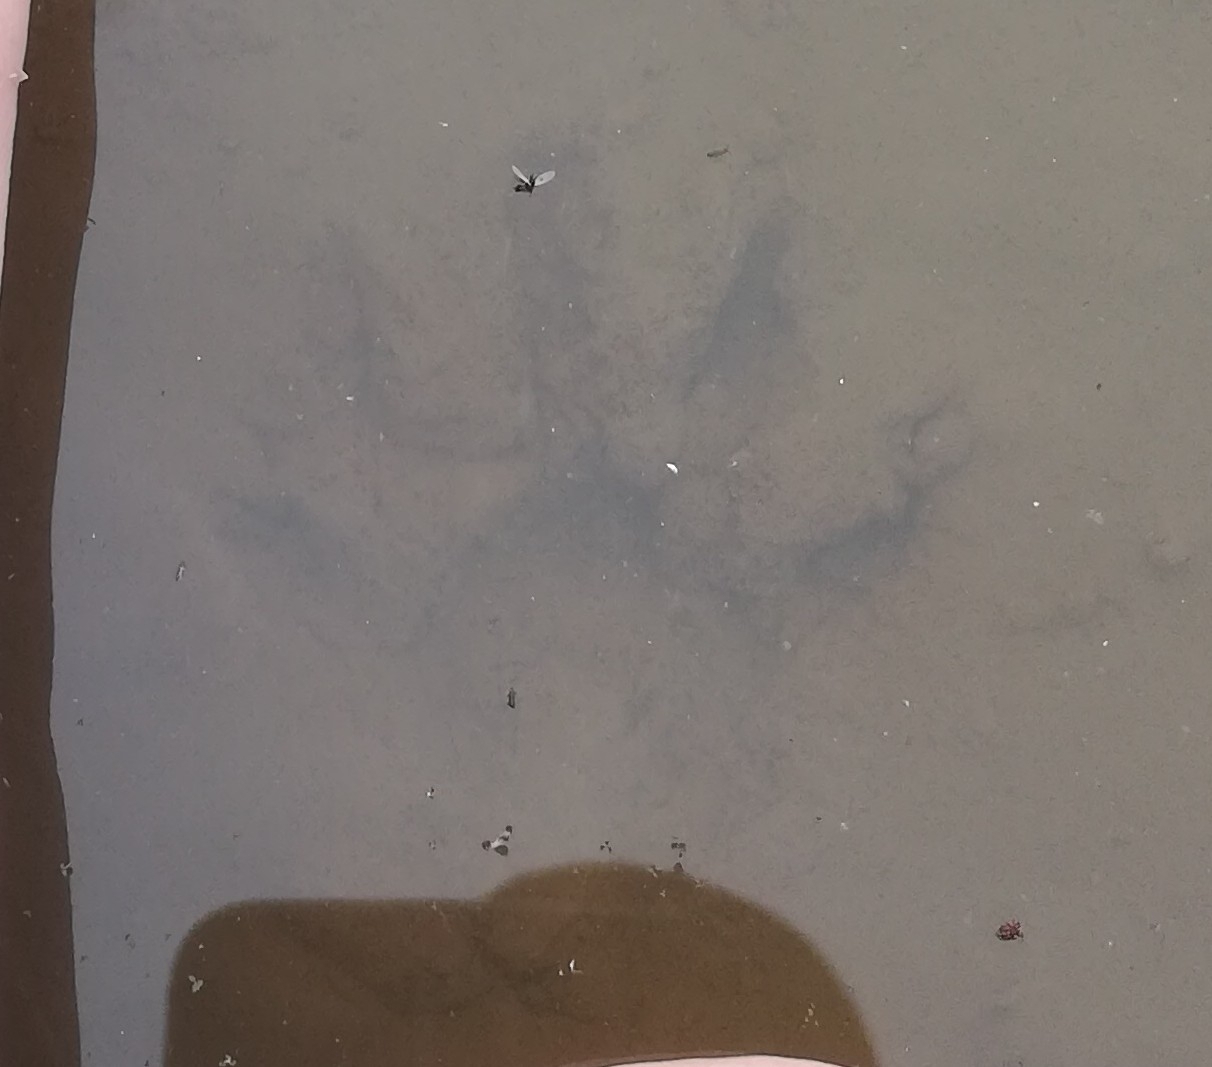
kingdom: Animalia
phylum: Chordata
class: Mammalia
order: Carnivora
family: Procyonidae
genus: Procyon
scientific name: Procyon lotor
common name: Raccoon
